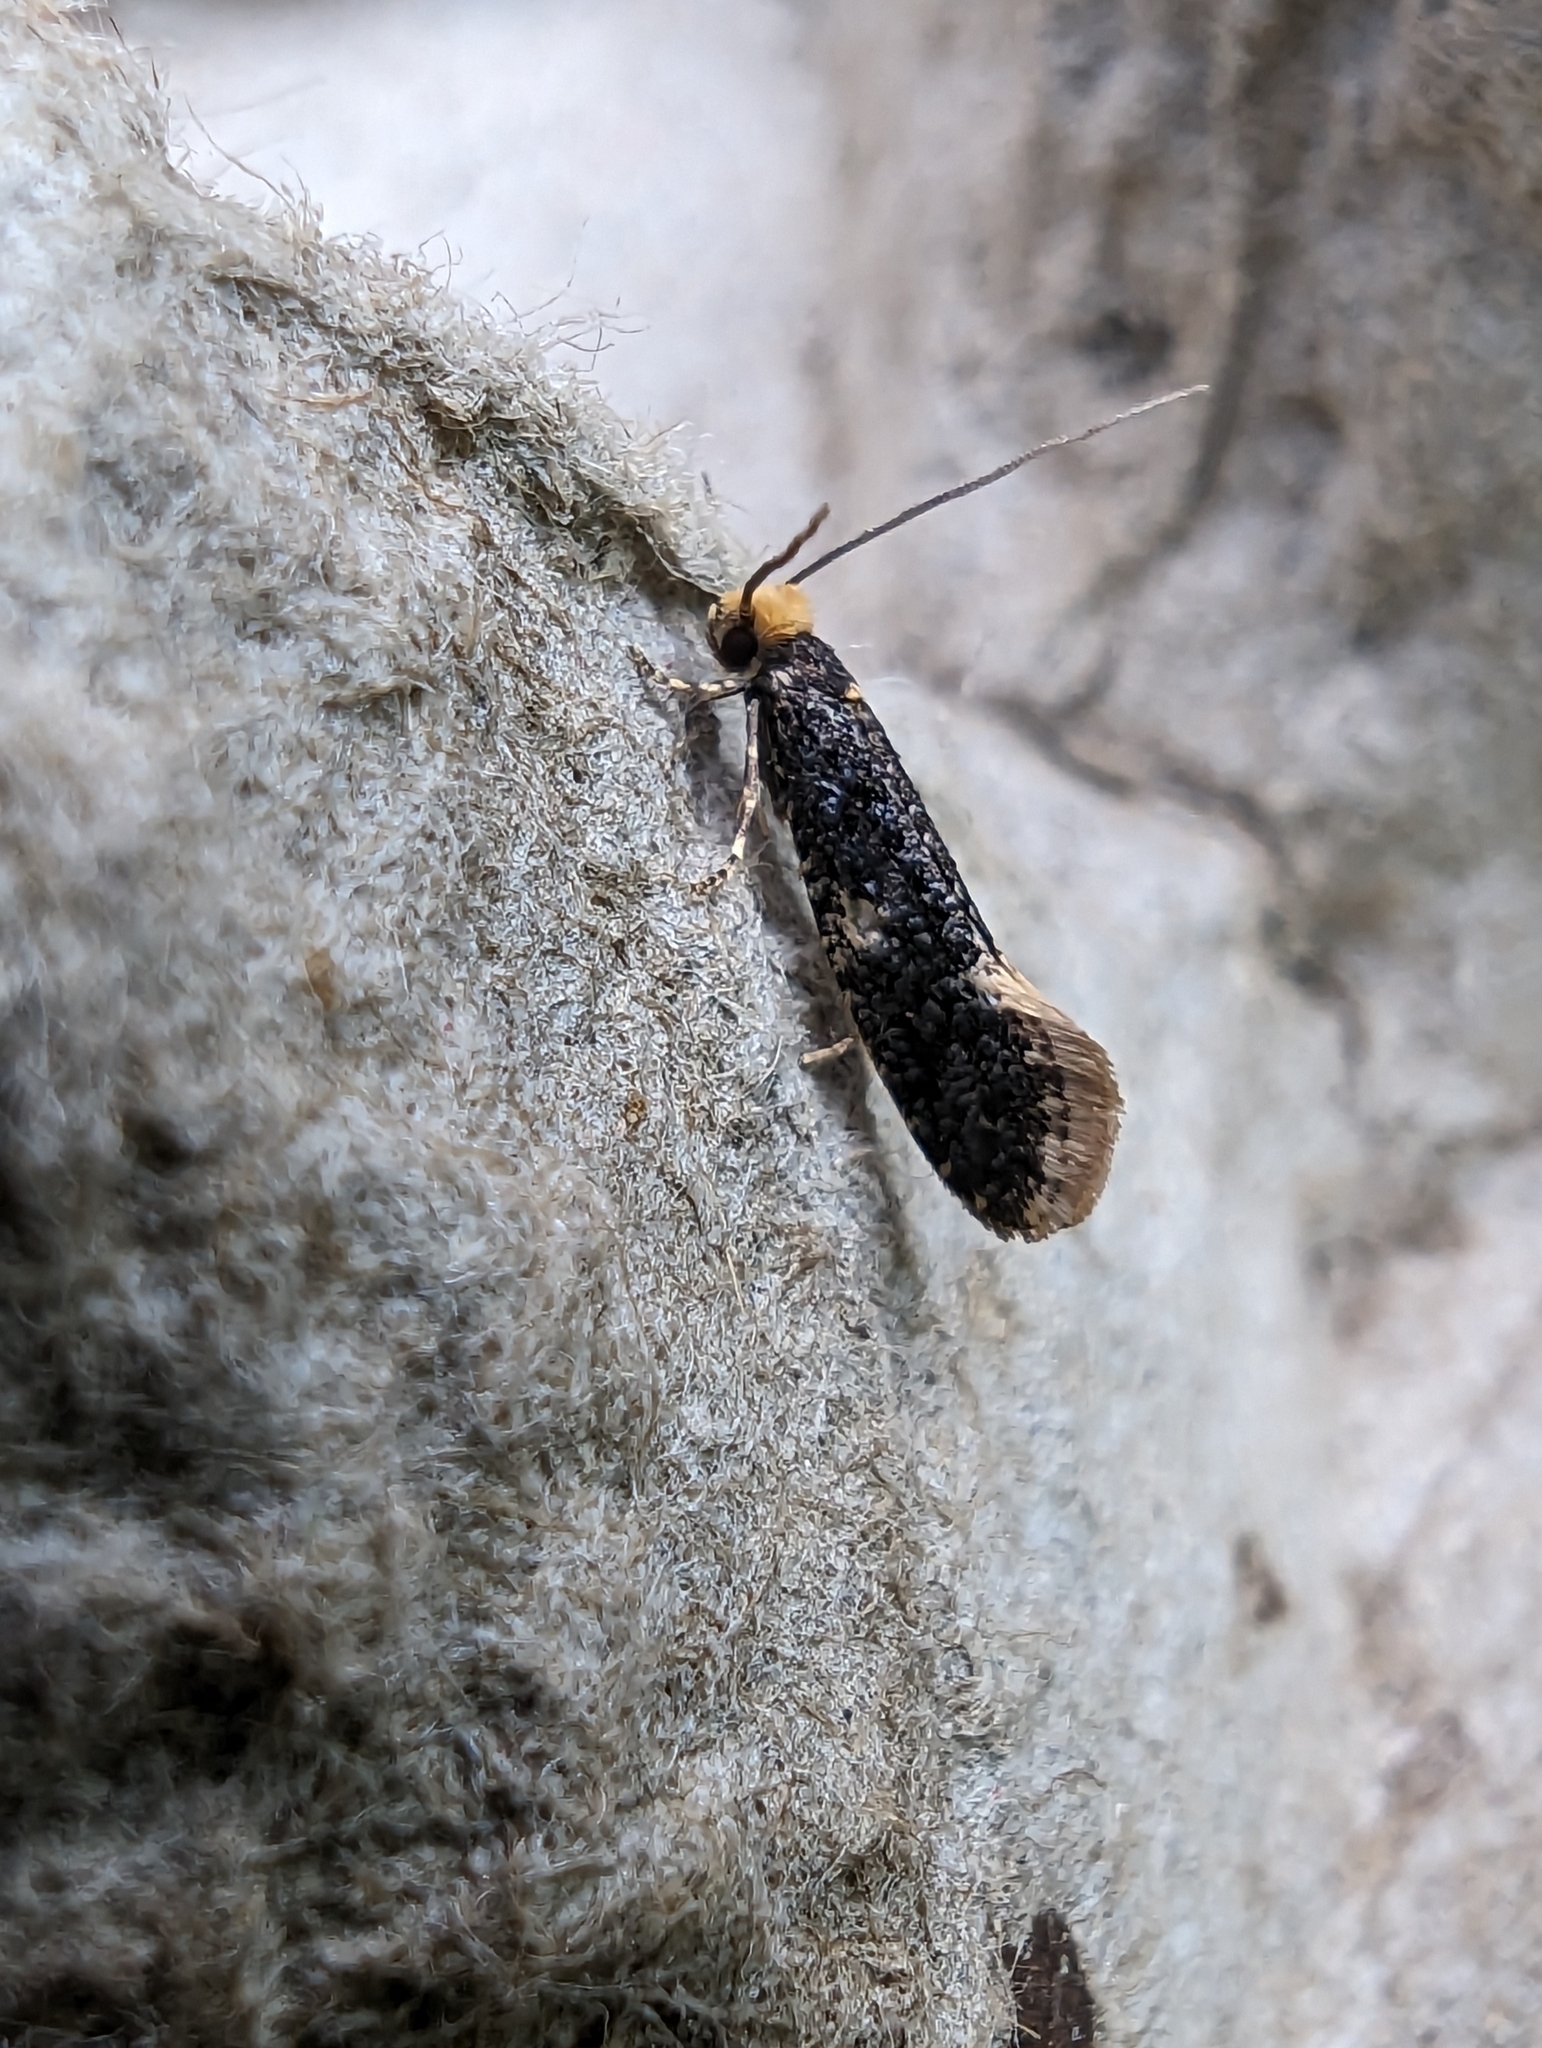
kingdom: Animalia
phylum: Arthropoda
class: Insecta
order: Lepidoptera
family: Tineidae
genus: Monopis
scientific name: Monopis weaverella
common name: Carrion moth
